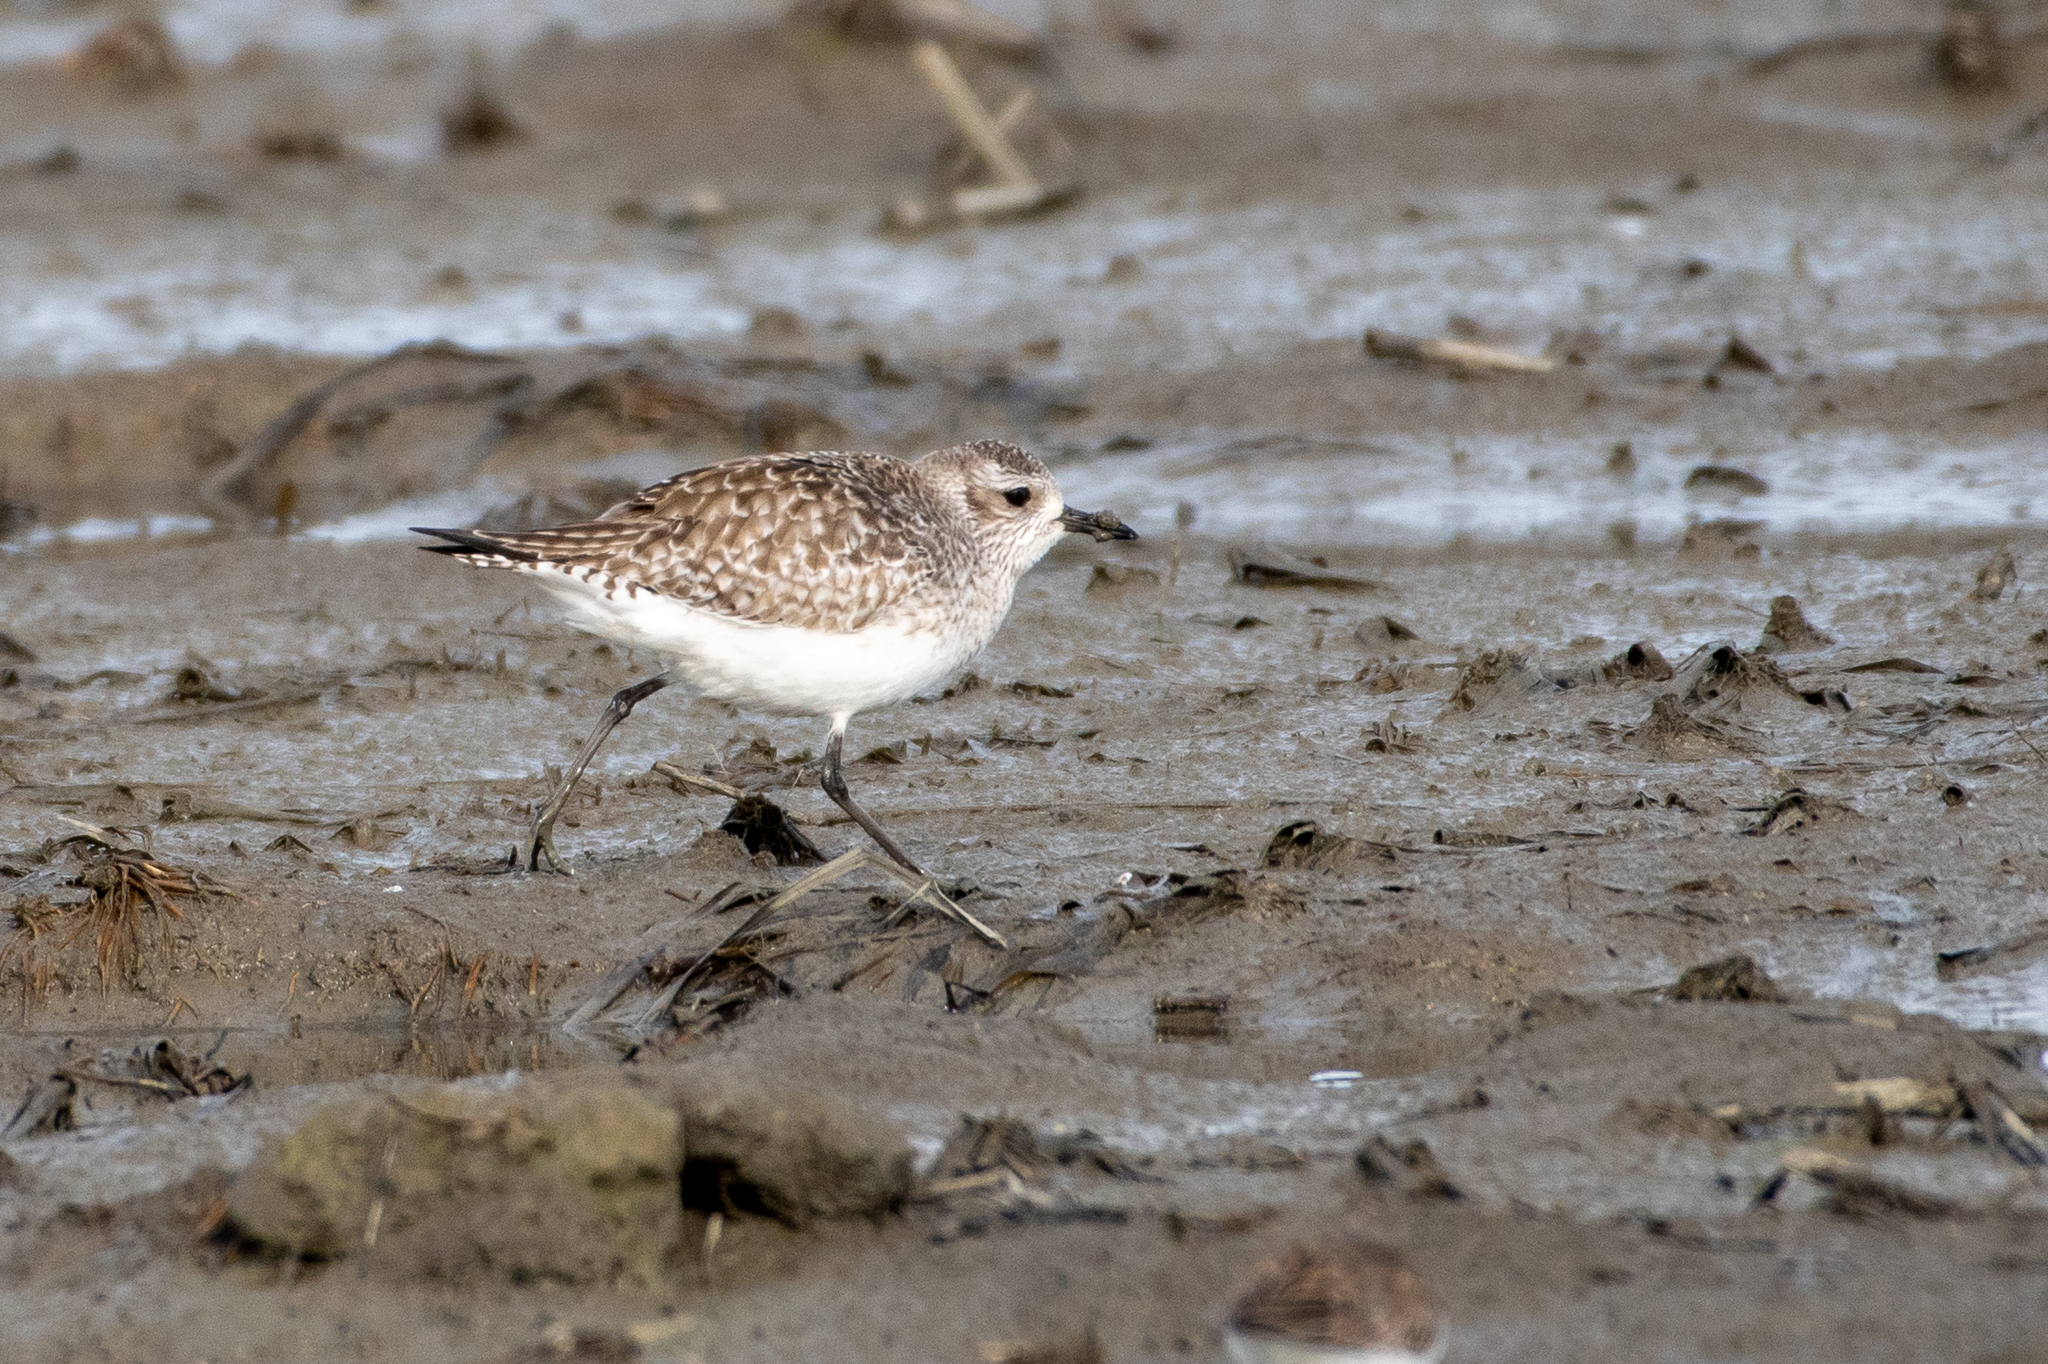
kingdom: Animalia
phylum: Chordata
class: Aves
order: Charadriiformes
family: Charadriidae
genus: Pluvialis
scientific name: Pluvialis squatarola
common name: Grey plover
